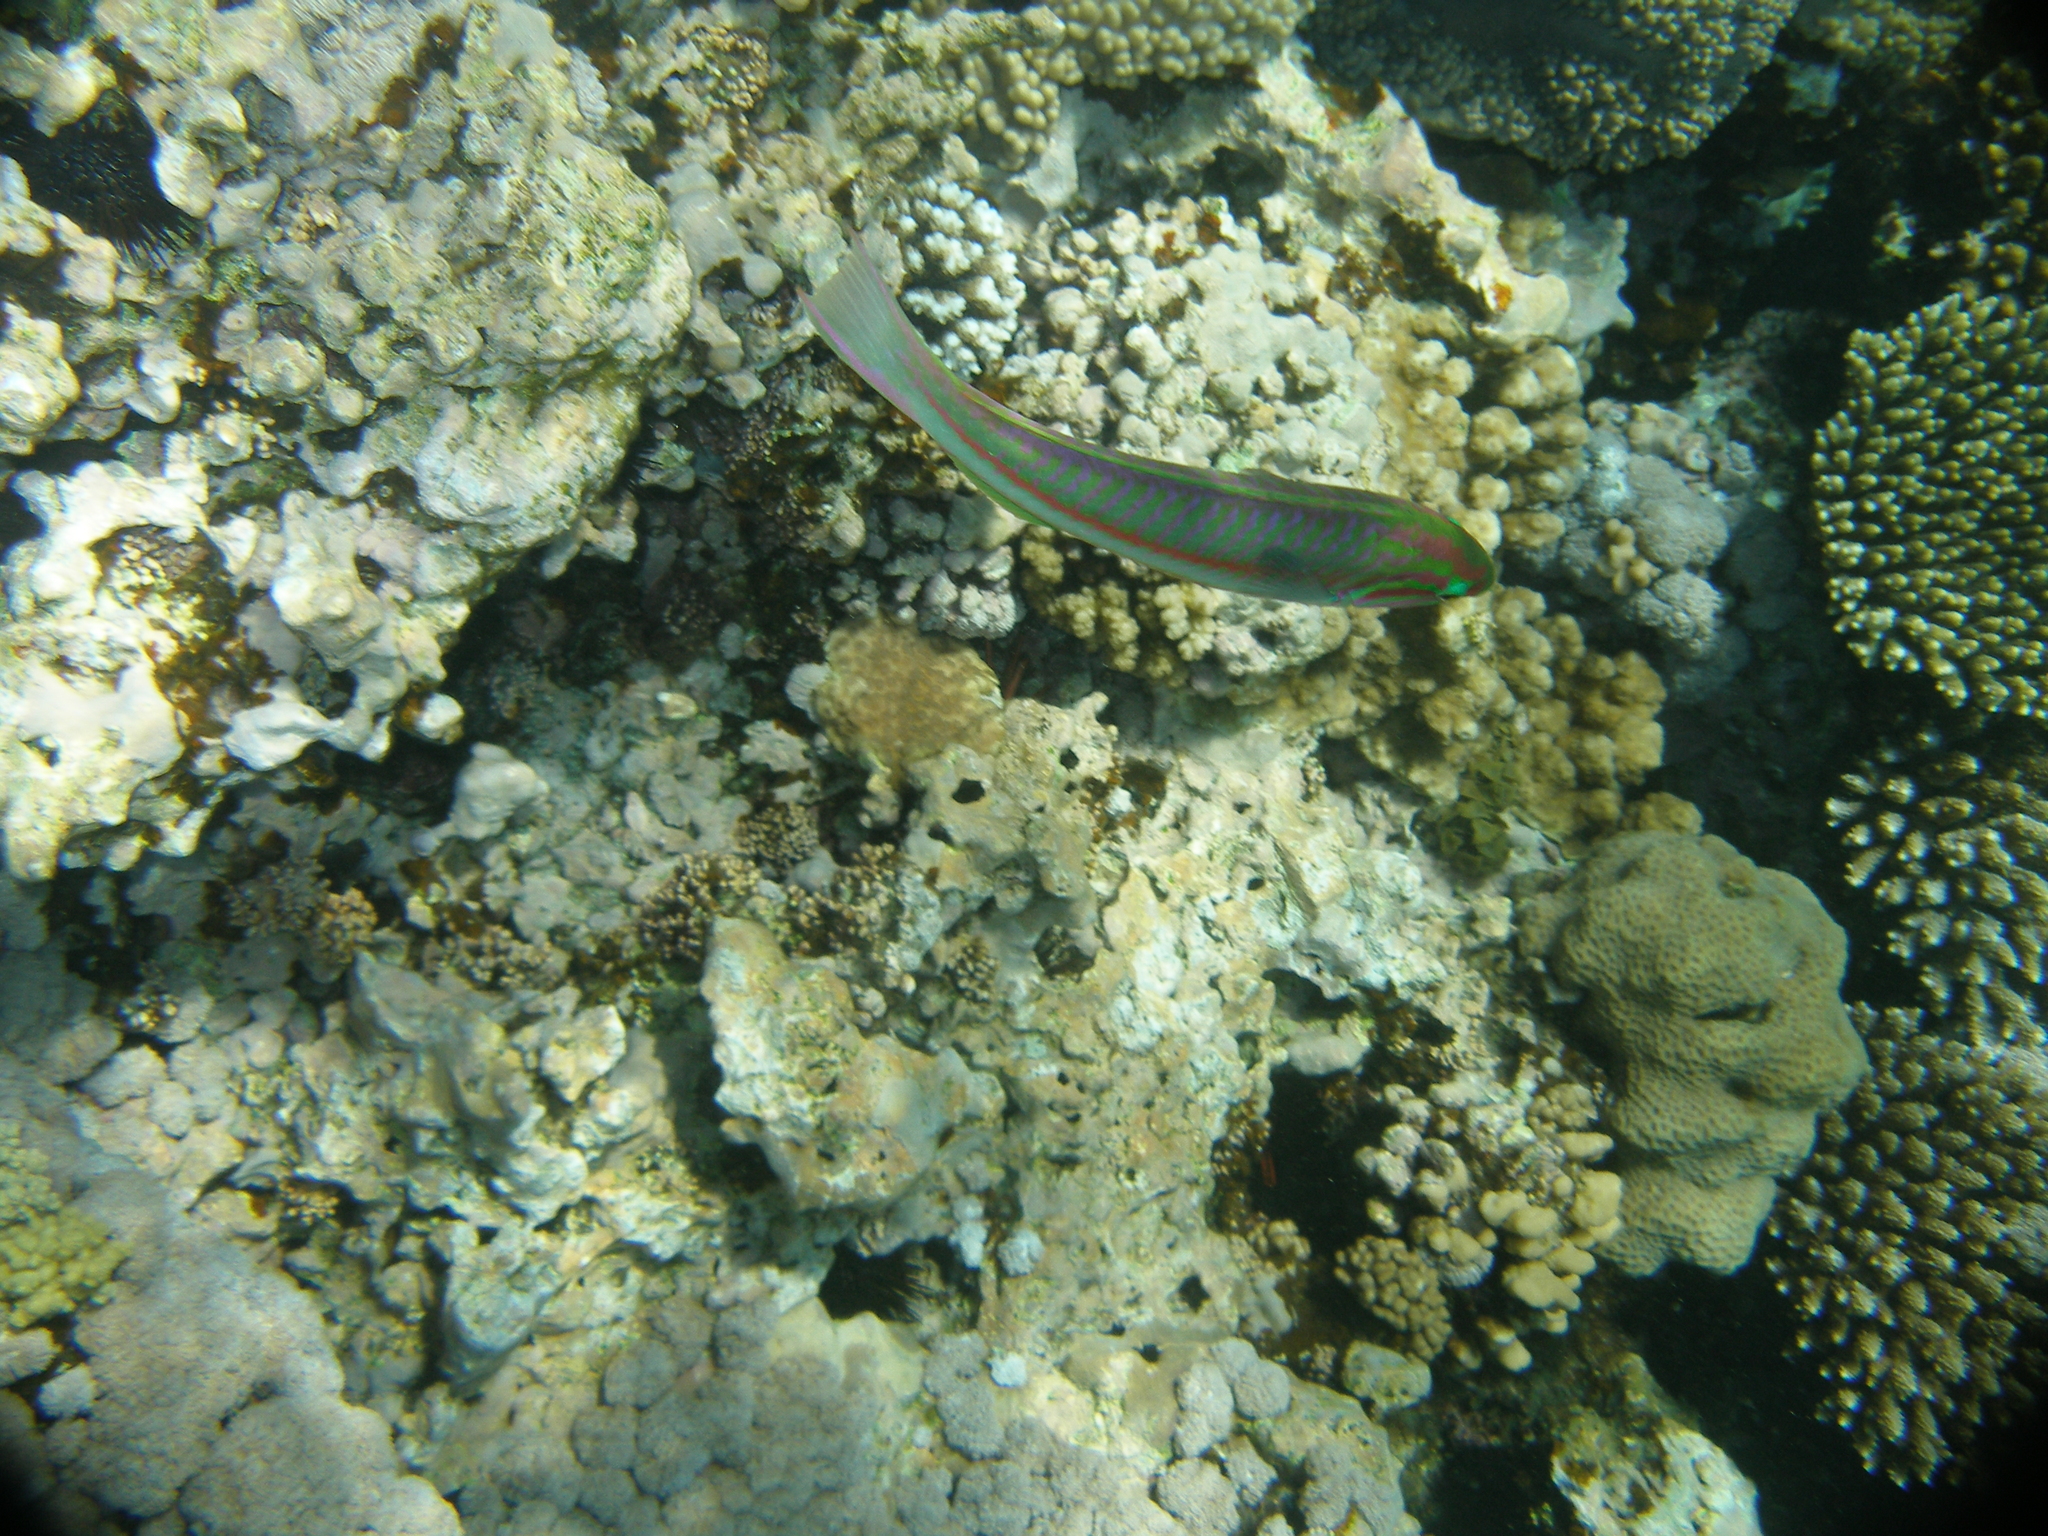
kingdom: Animalia
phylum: Chordata
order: Perciformes
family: Labridae
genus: Thalassoma
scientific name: Thalassoma rueppellii
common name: Klunzinger's wrasse
